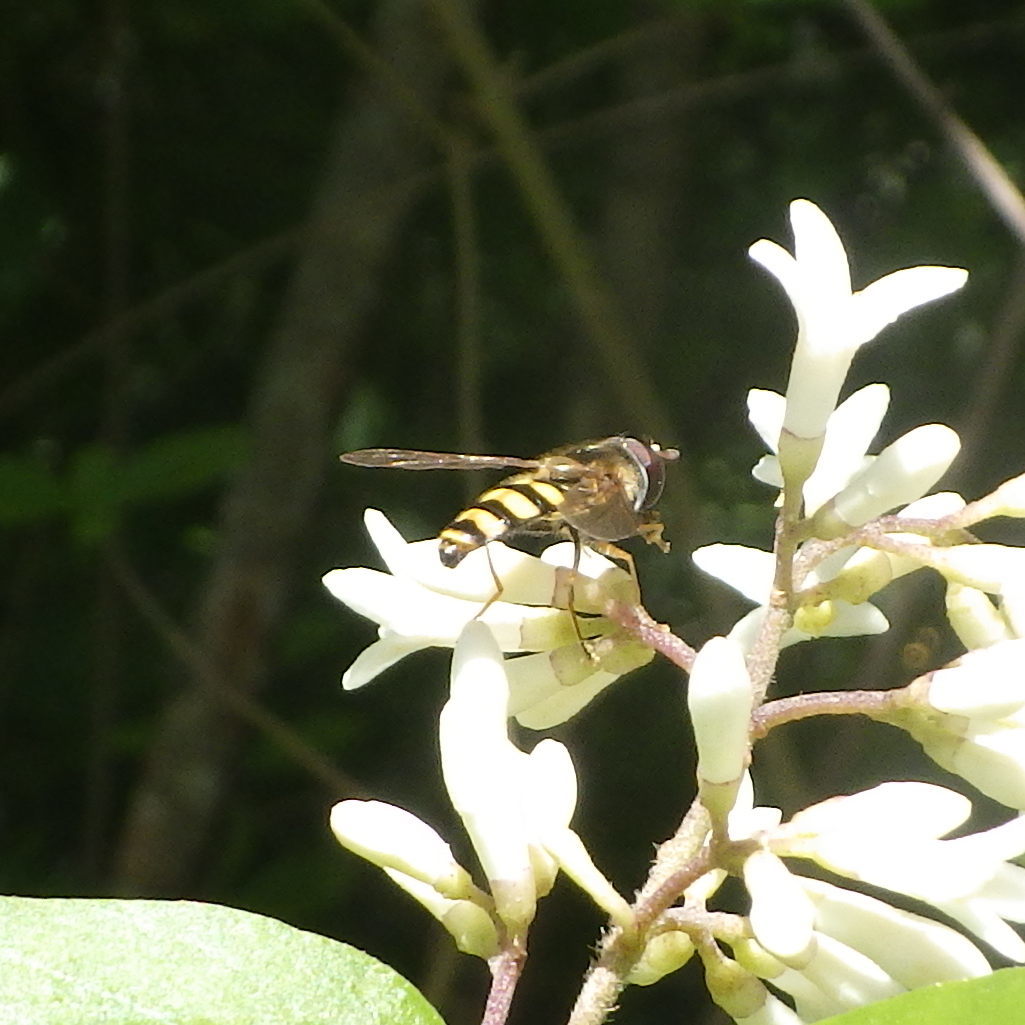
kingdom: Animalia
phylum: Arthropoda
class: Insecta
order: Diptera
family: Syrphidae
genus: Eupeodes
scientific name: Eupeodes
